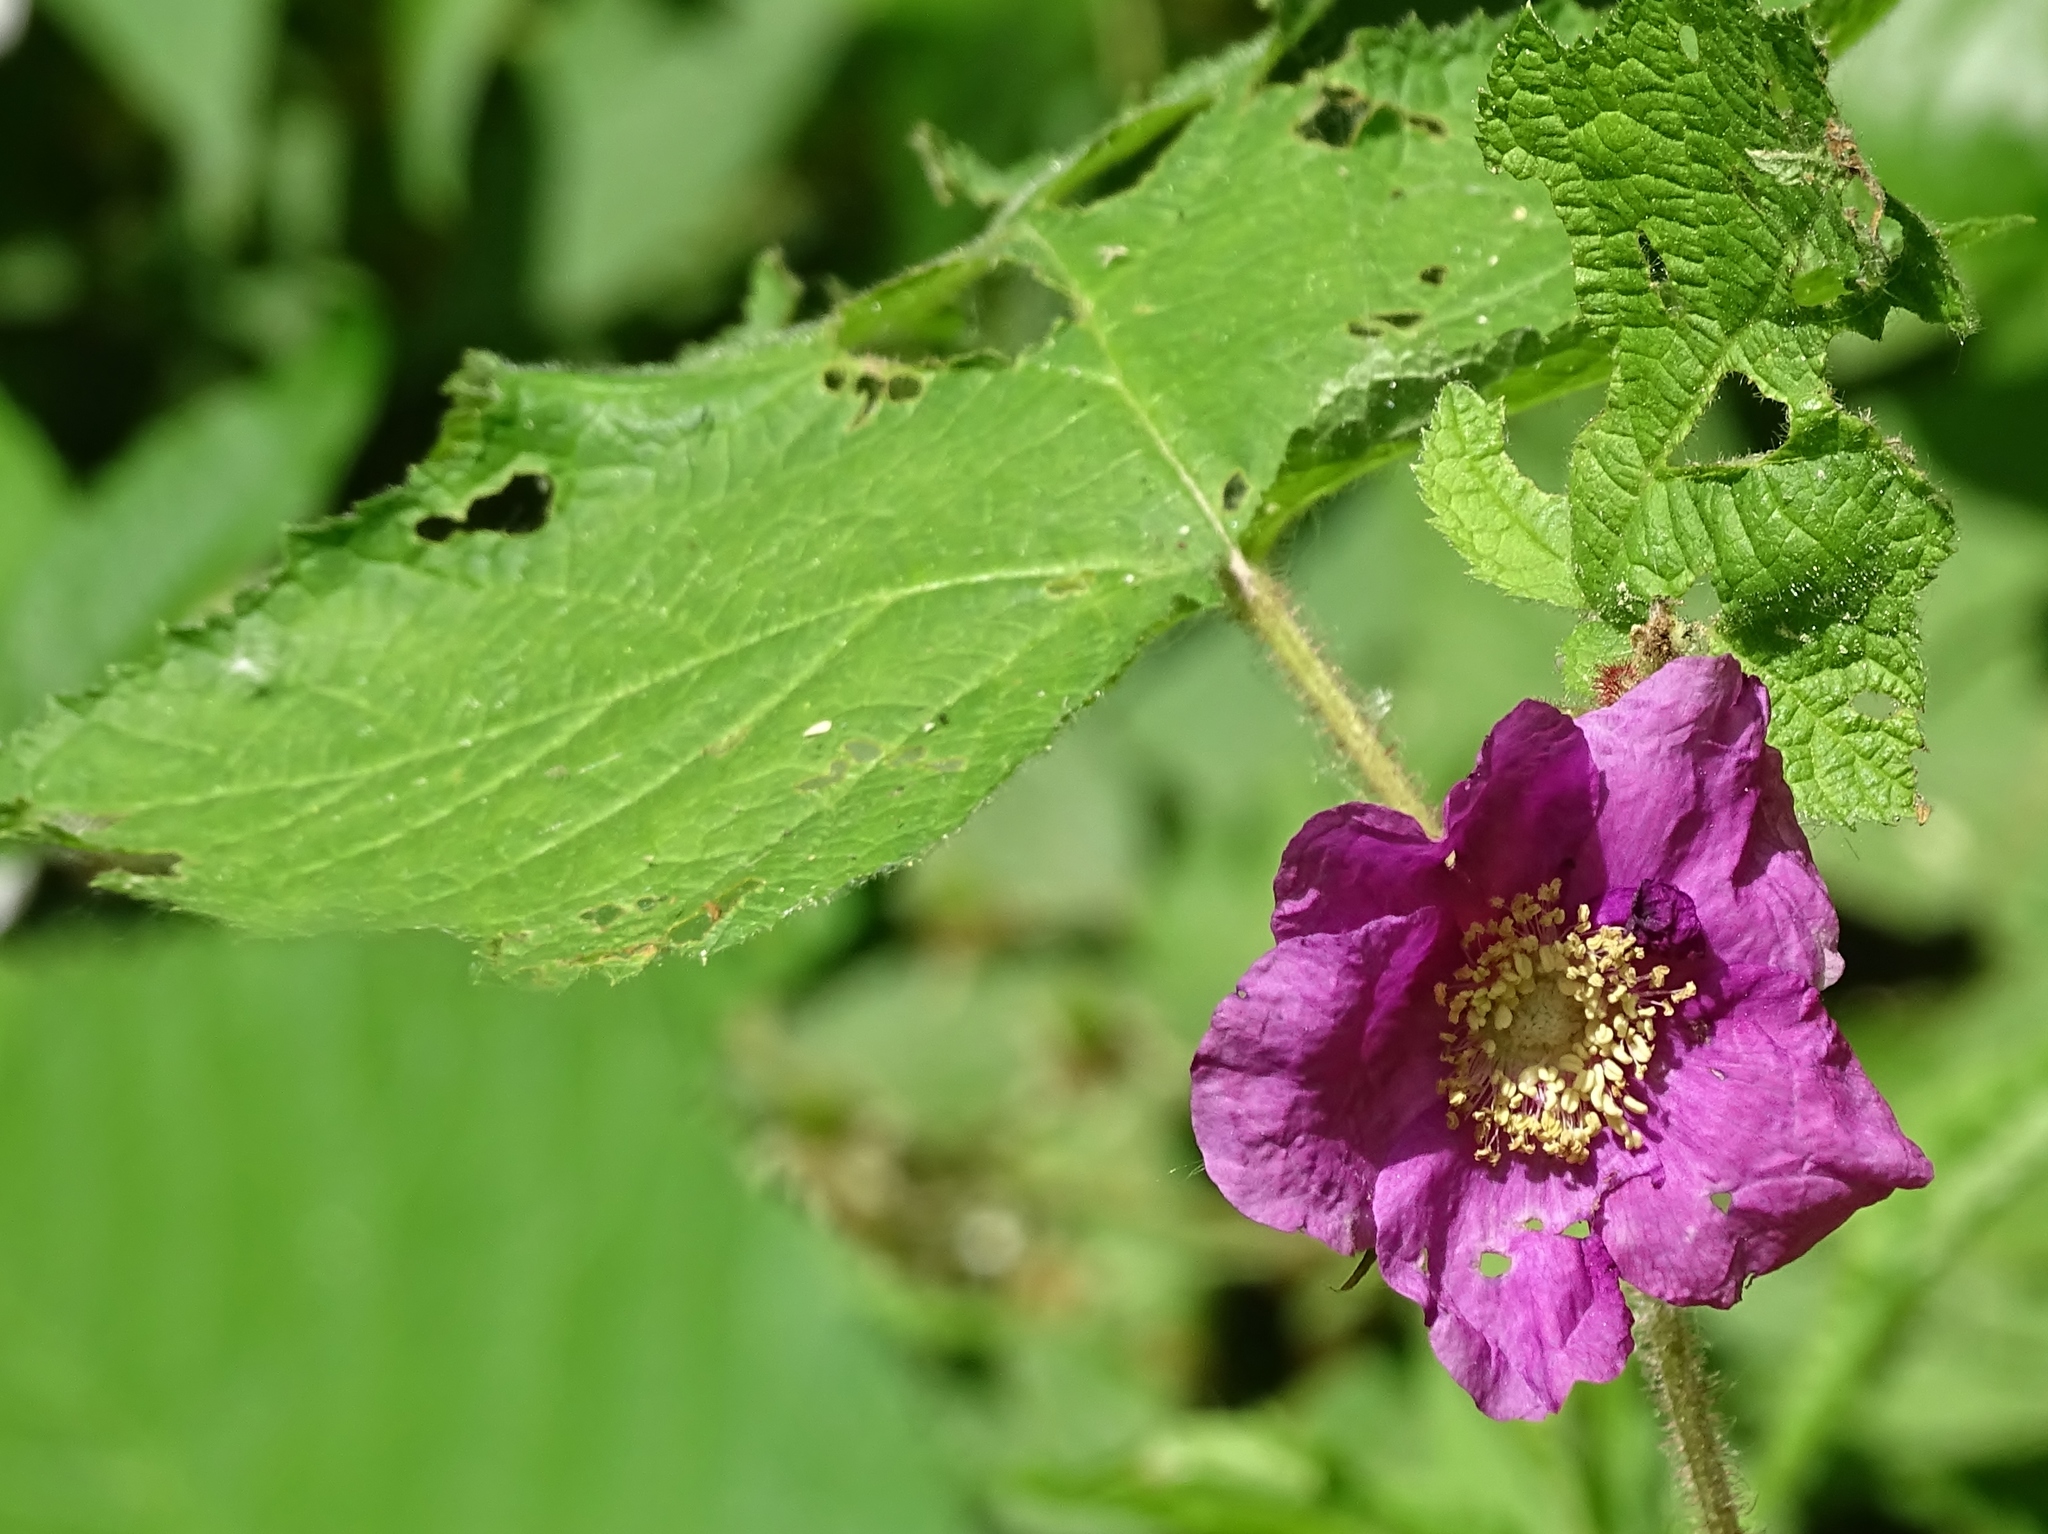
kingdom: Plantae
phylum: Tracheophyta
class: Magnoliopsida
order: Rosales
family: Rosaceae
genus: Rubus
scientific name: Rubus odoratus
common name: Purple-flowered raspberry
